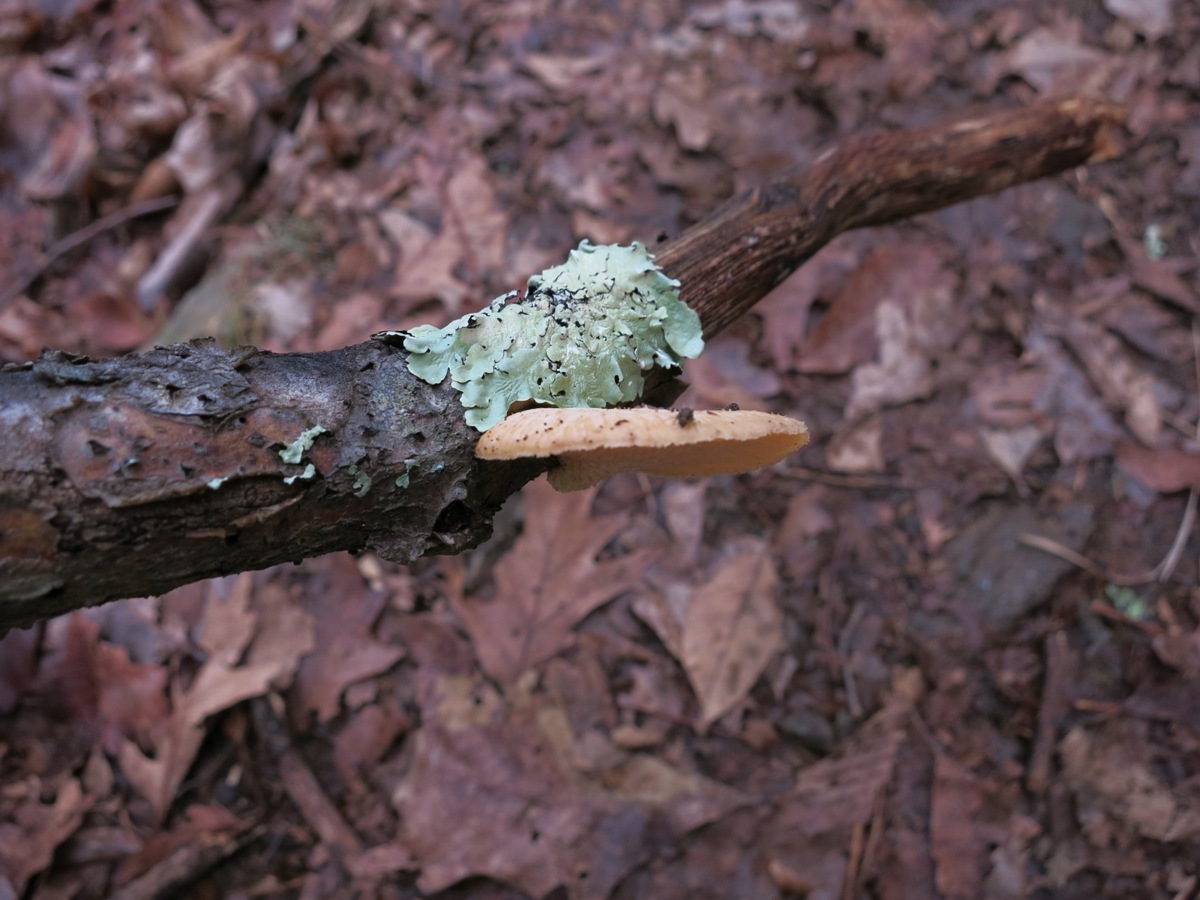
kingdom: Fungi
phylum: Basidiomycota
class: Agaricomycetes
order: Polyporales
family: Polyporaceae
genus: Neofavolus
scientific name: Neofavolus alveolaris
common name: Hexagonal-pored polypore
